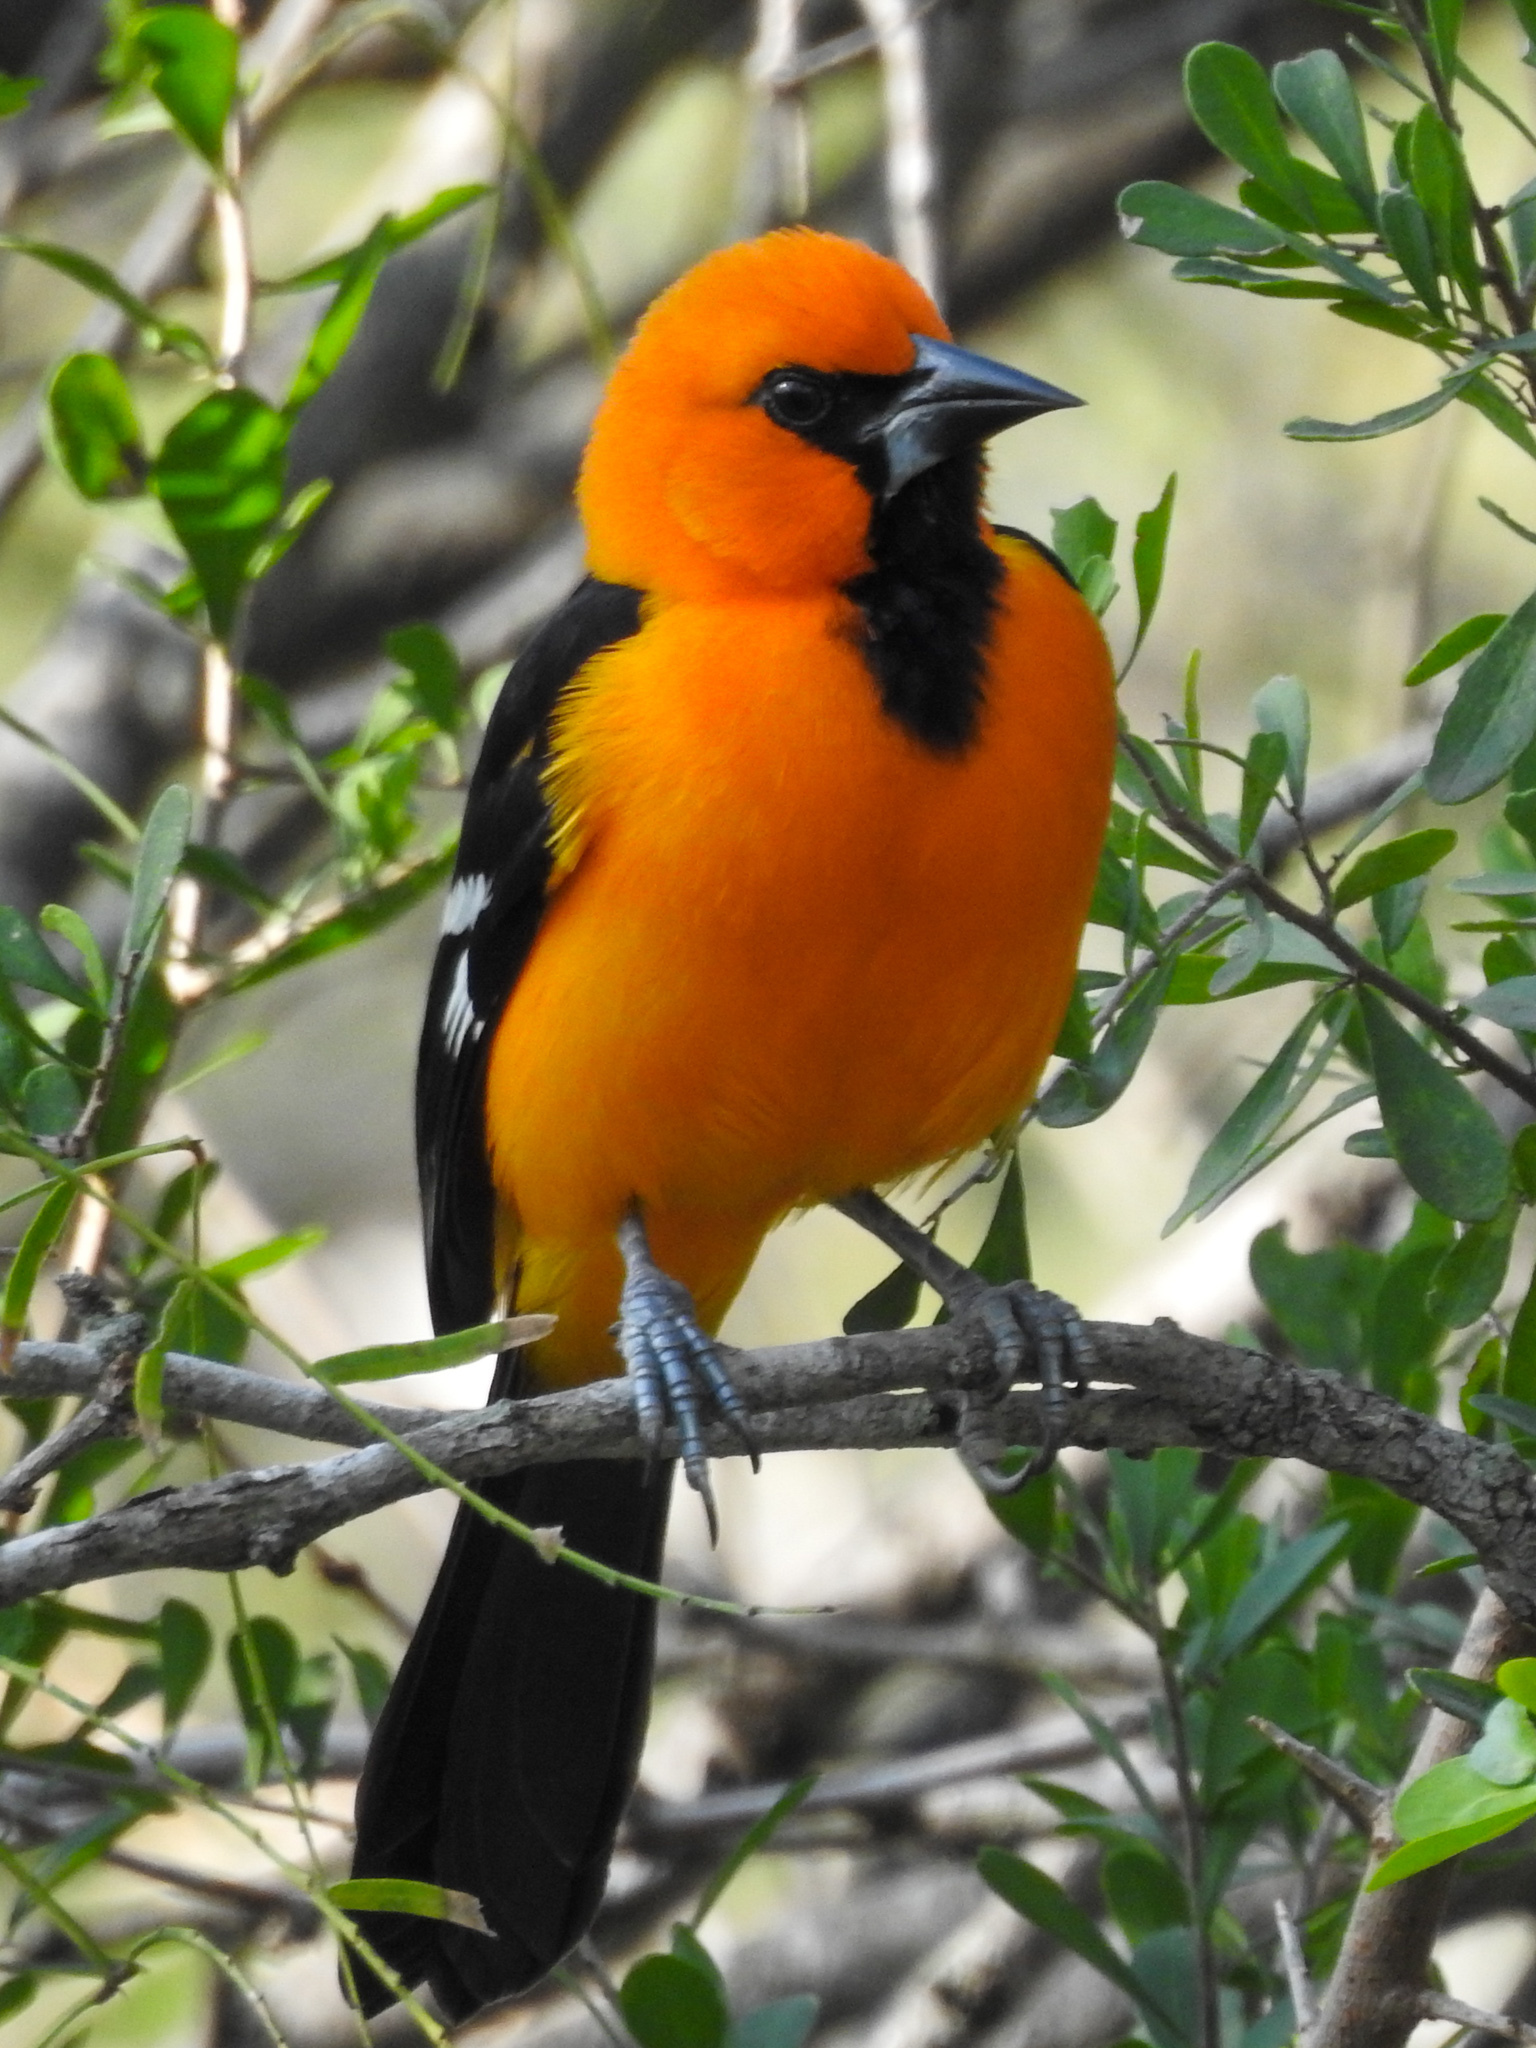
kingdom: Animalia
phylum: Chordata
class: Aves
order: Passeriformes
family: Icteridae
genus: Icterus
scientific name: Icterus gularis
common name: Altamira oriole
